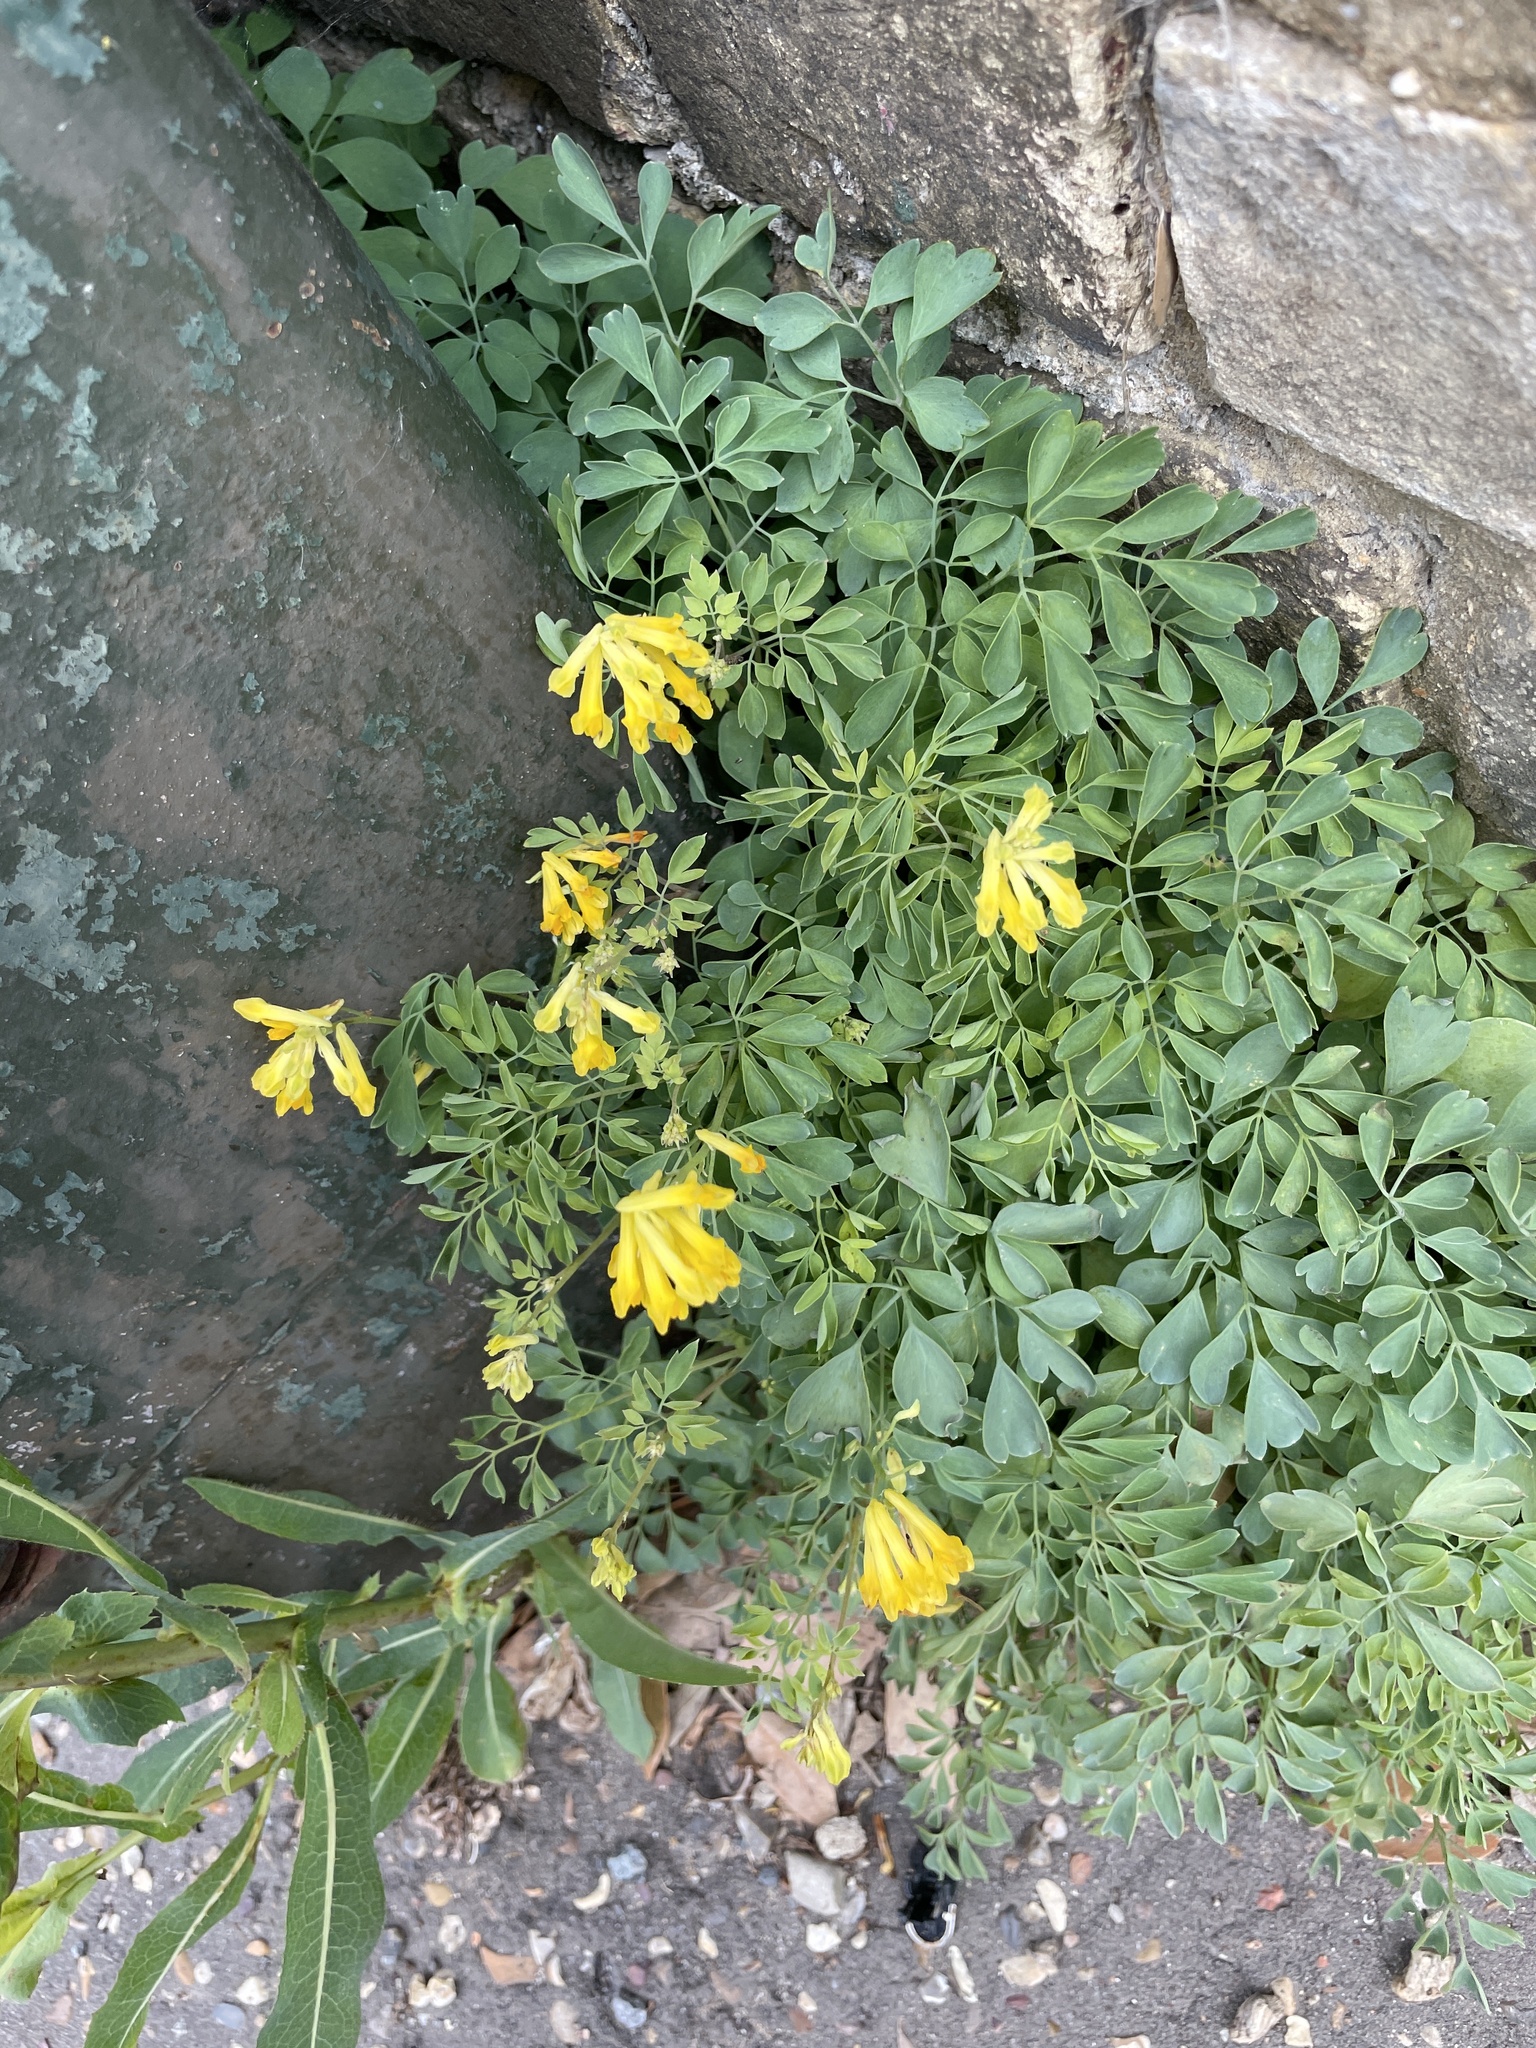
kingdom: Plantae
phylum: Tracheophyta
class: Magnoliopsida
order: Ranunculales
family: Papaveraceae
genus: Pseudofumaria
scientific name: Pseudofumaria lutea
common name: Yellow corydalis
